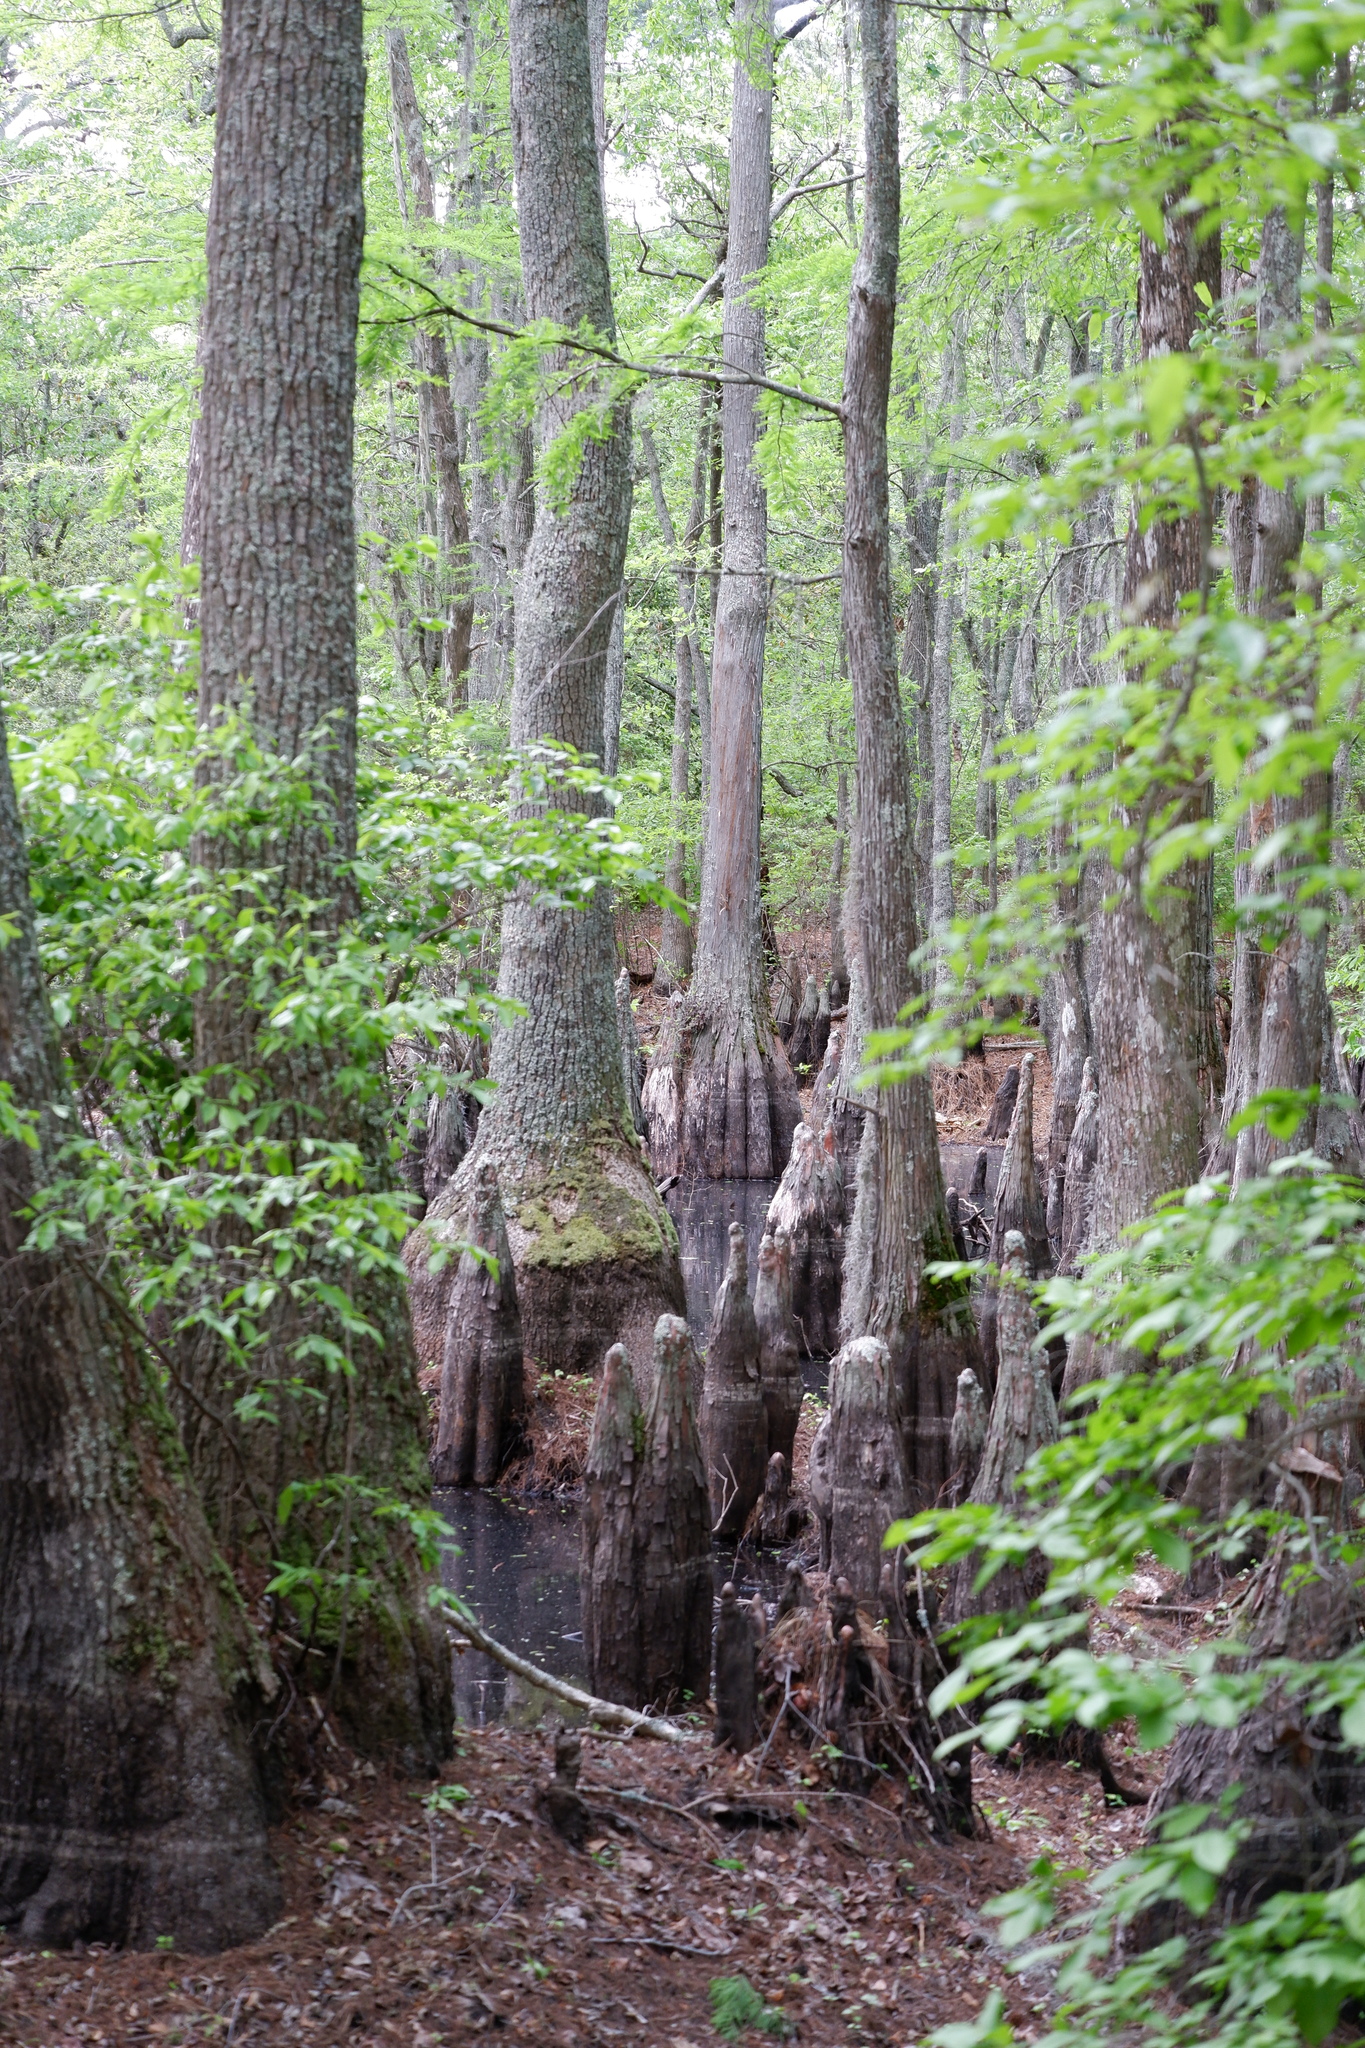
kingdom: Plantae
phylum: Tracheophyta
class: Pinopsida
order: Pinales
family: Cupressaceae
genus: Taxodium
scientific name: Taxodium distichum
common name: Bald cypress
